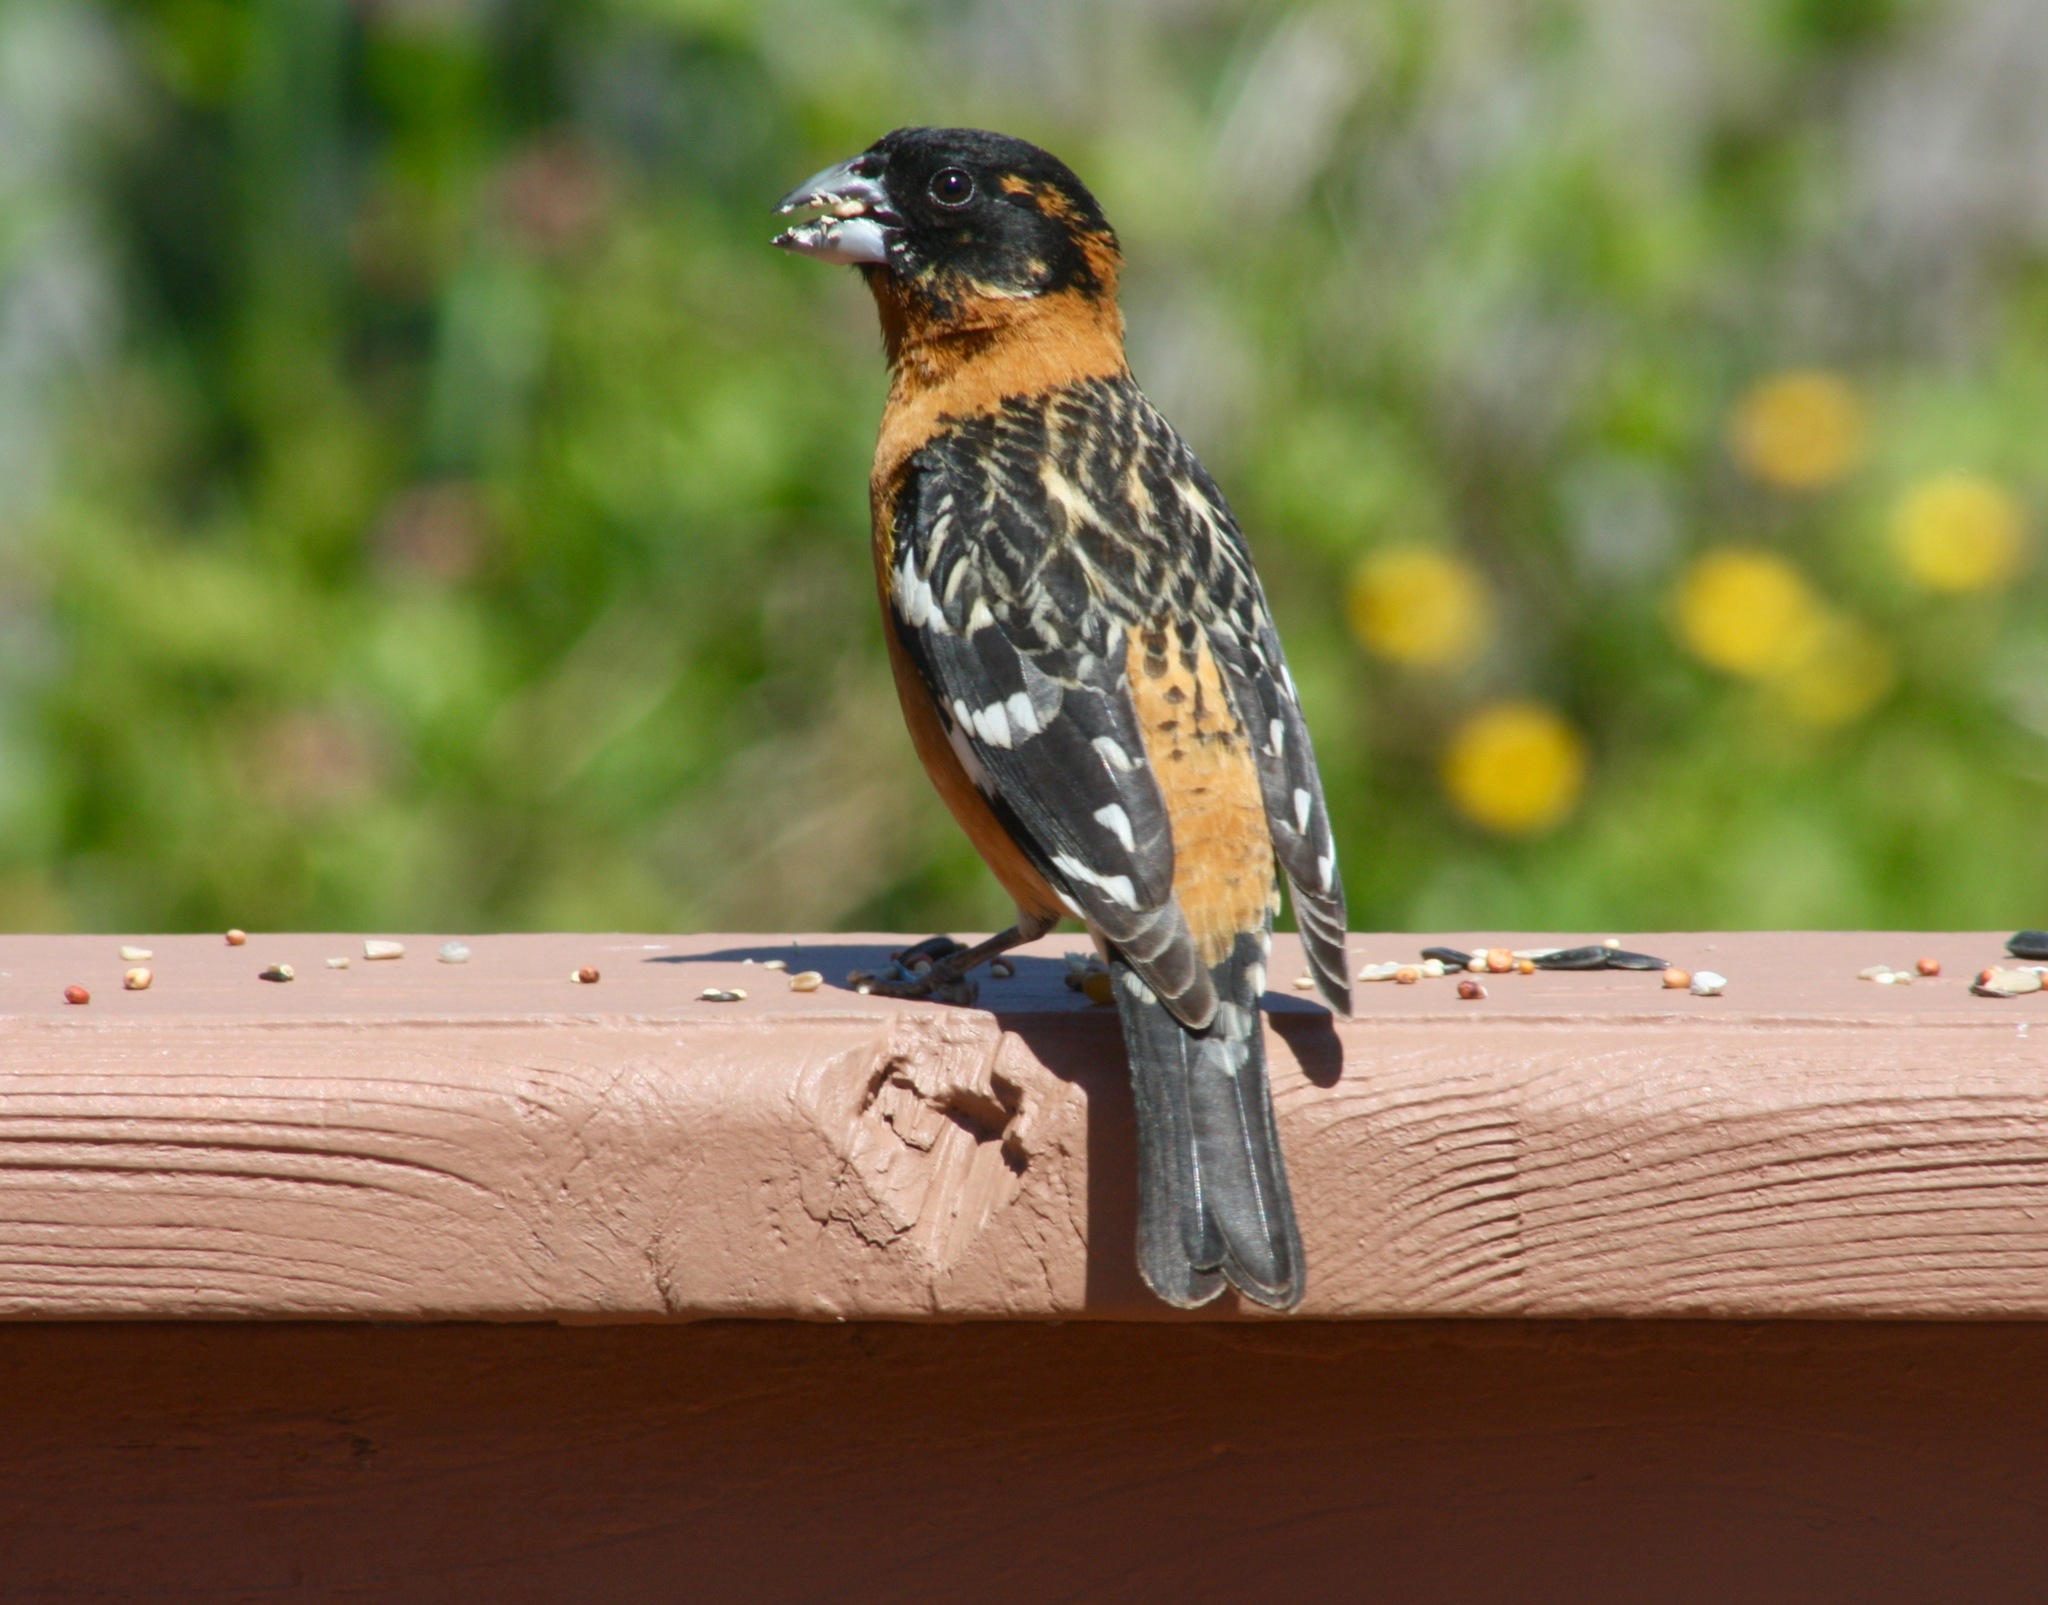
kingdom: Animalia
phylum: Chordata
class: Aves
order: Passeriformes
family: Cardinalidae
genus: Pheucticus
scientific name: Pheucticus melanocephalus
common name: Black-headed grosbeak
